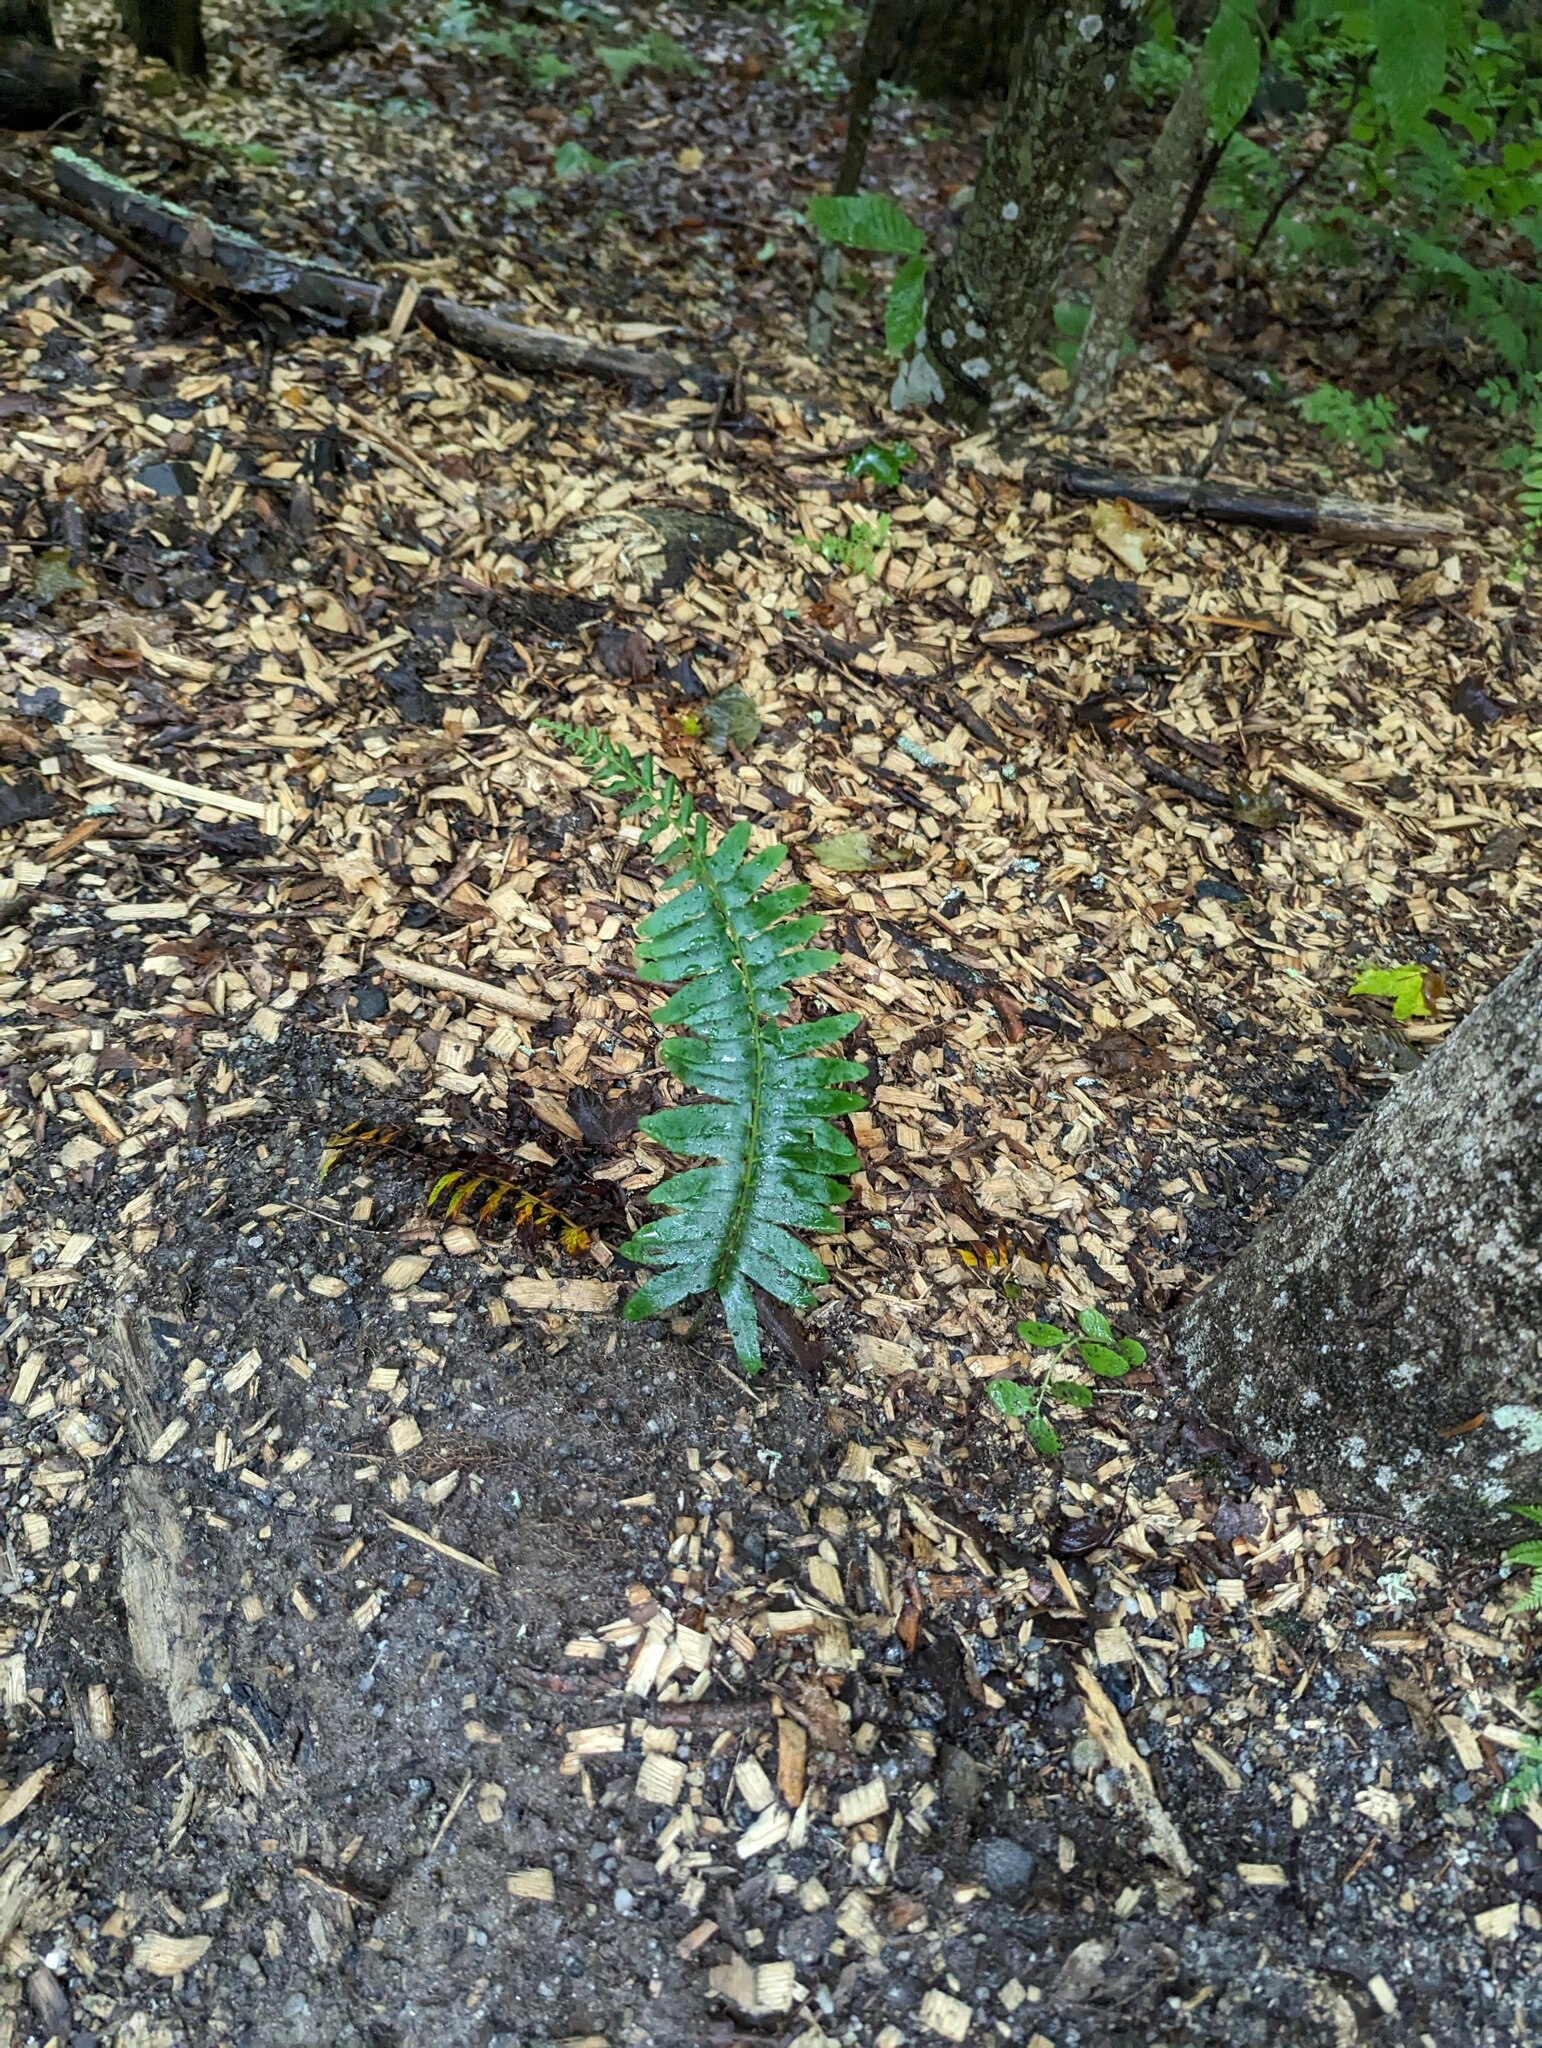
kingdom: Plantae
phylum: Tracheophyta
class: Polypodiopsida
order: Polypodiales
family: Dryopteridaceae
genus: Polystichum
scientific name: Polystichum acrostichoides
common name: Christmas fern
